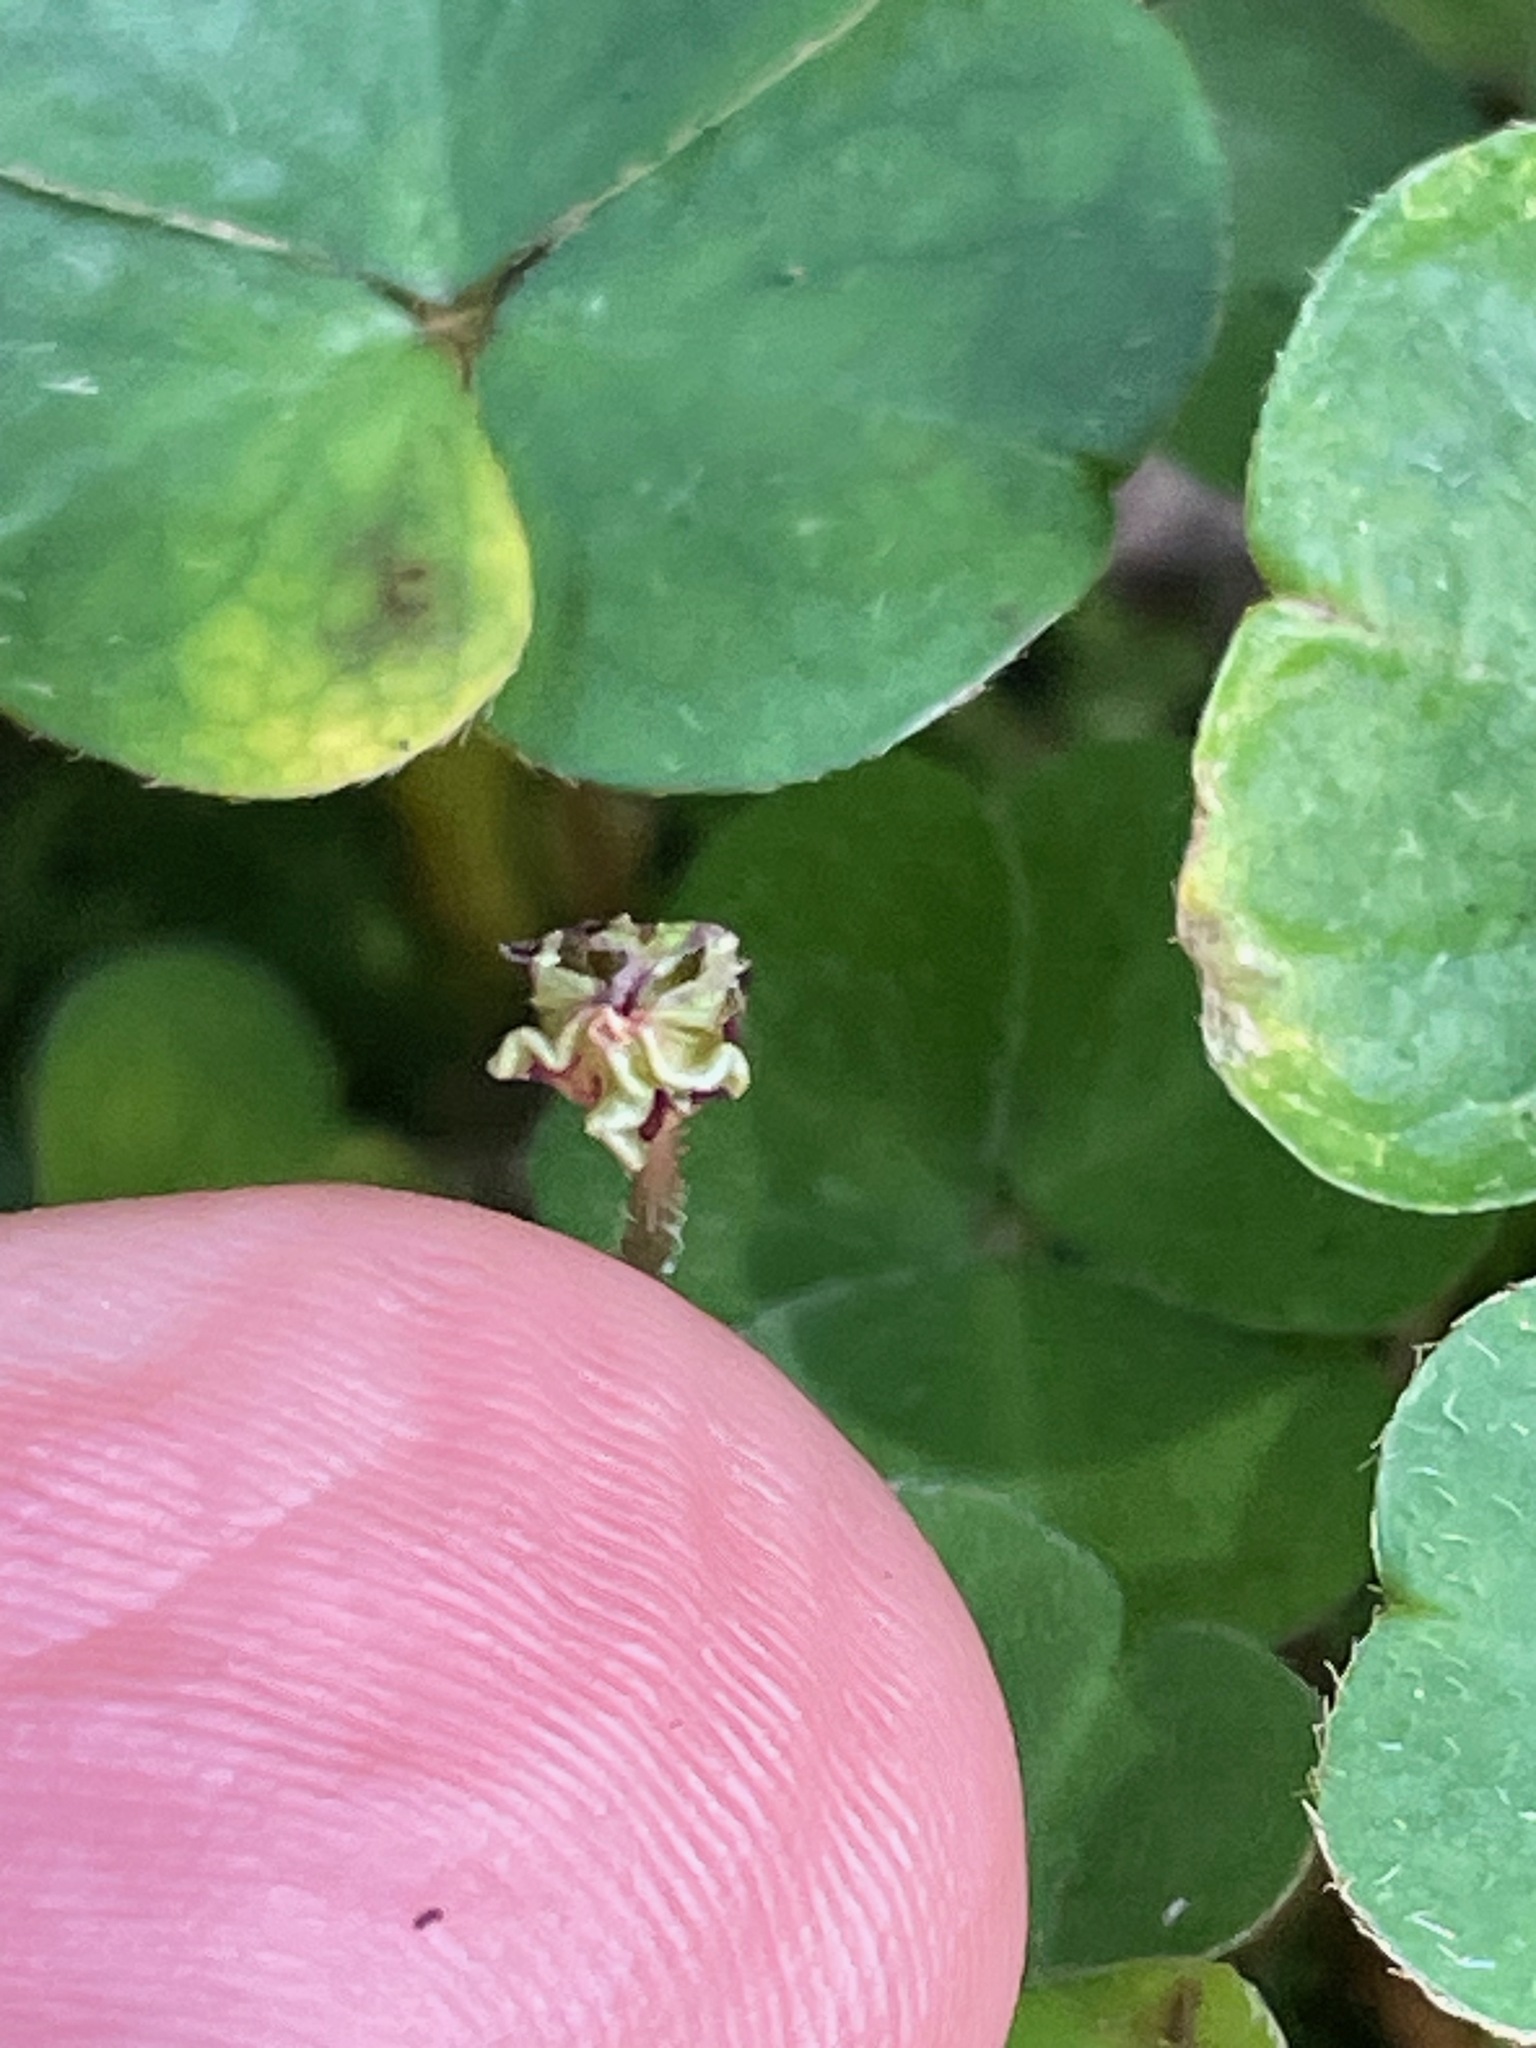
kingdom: Plantae
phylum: Tracheophyta
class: Magnoliopsida
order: Oxalidales
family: Oxalidaceae
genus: Oxalis
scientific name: Oxalis montana
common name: American wood-sorrel
